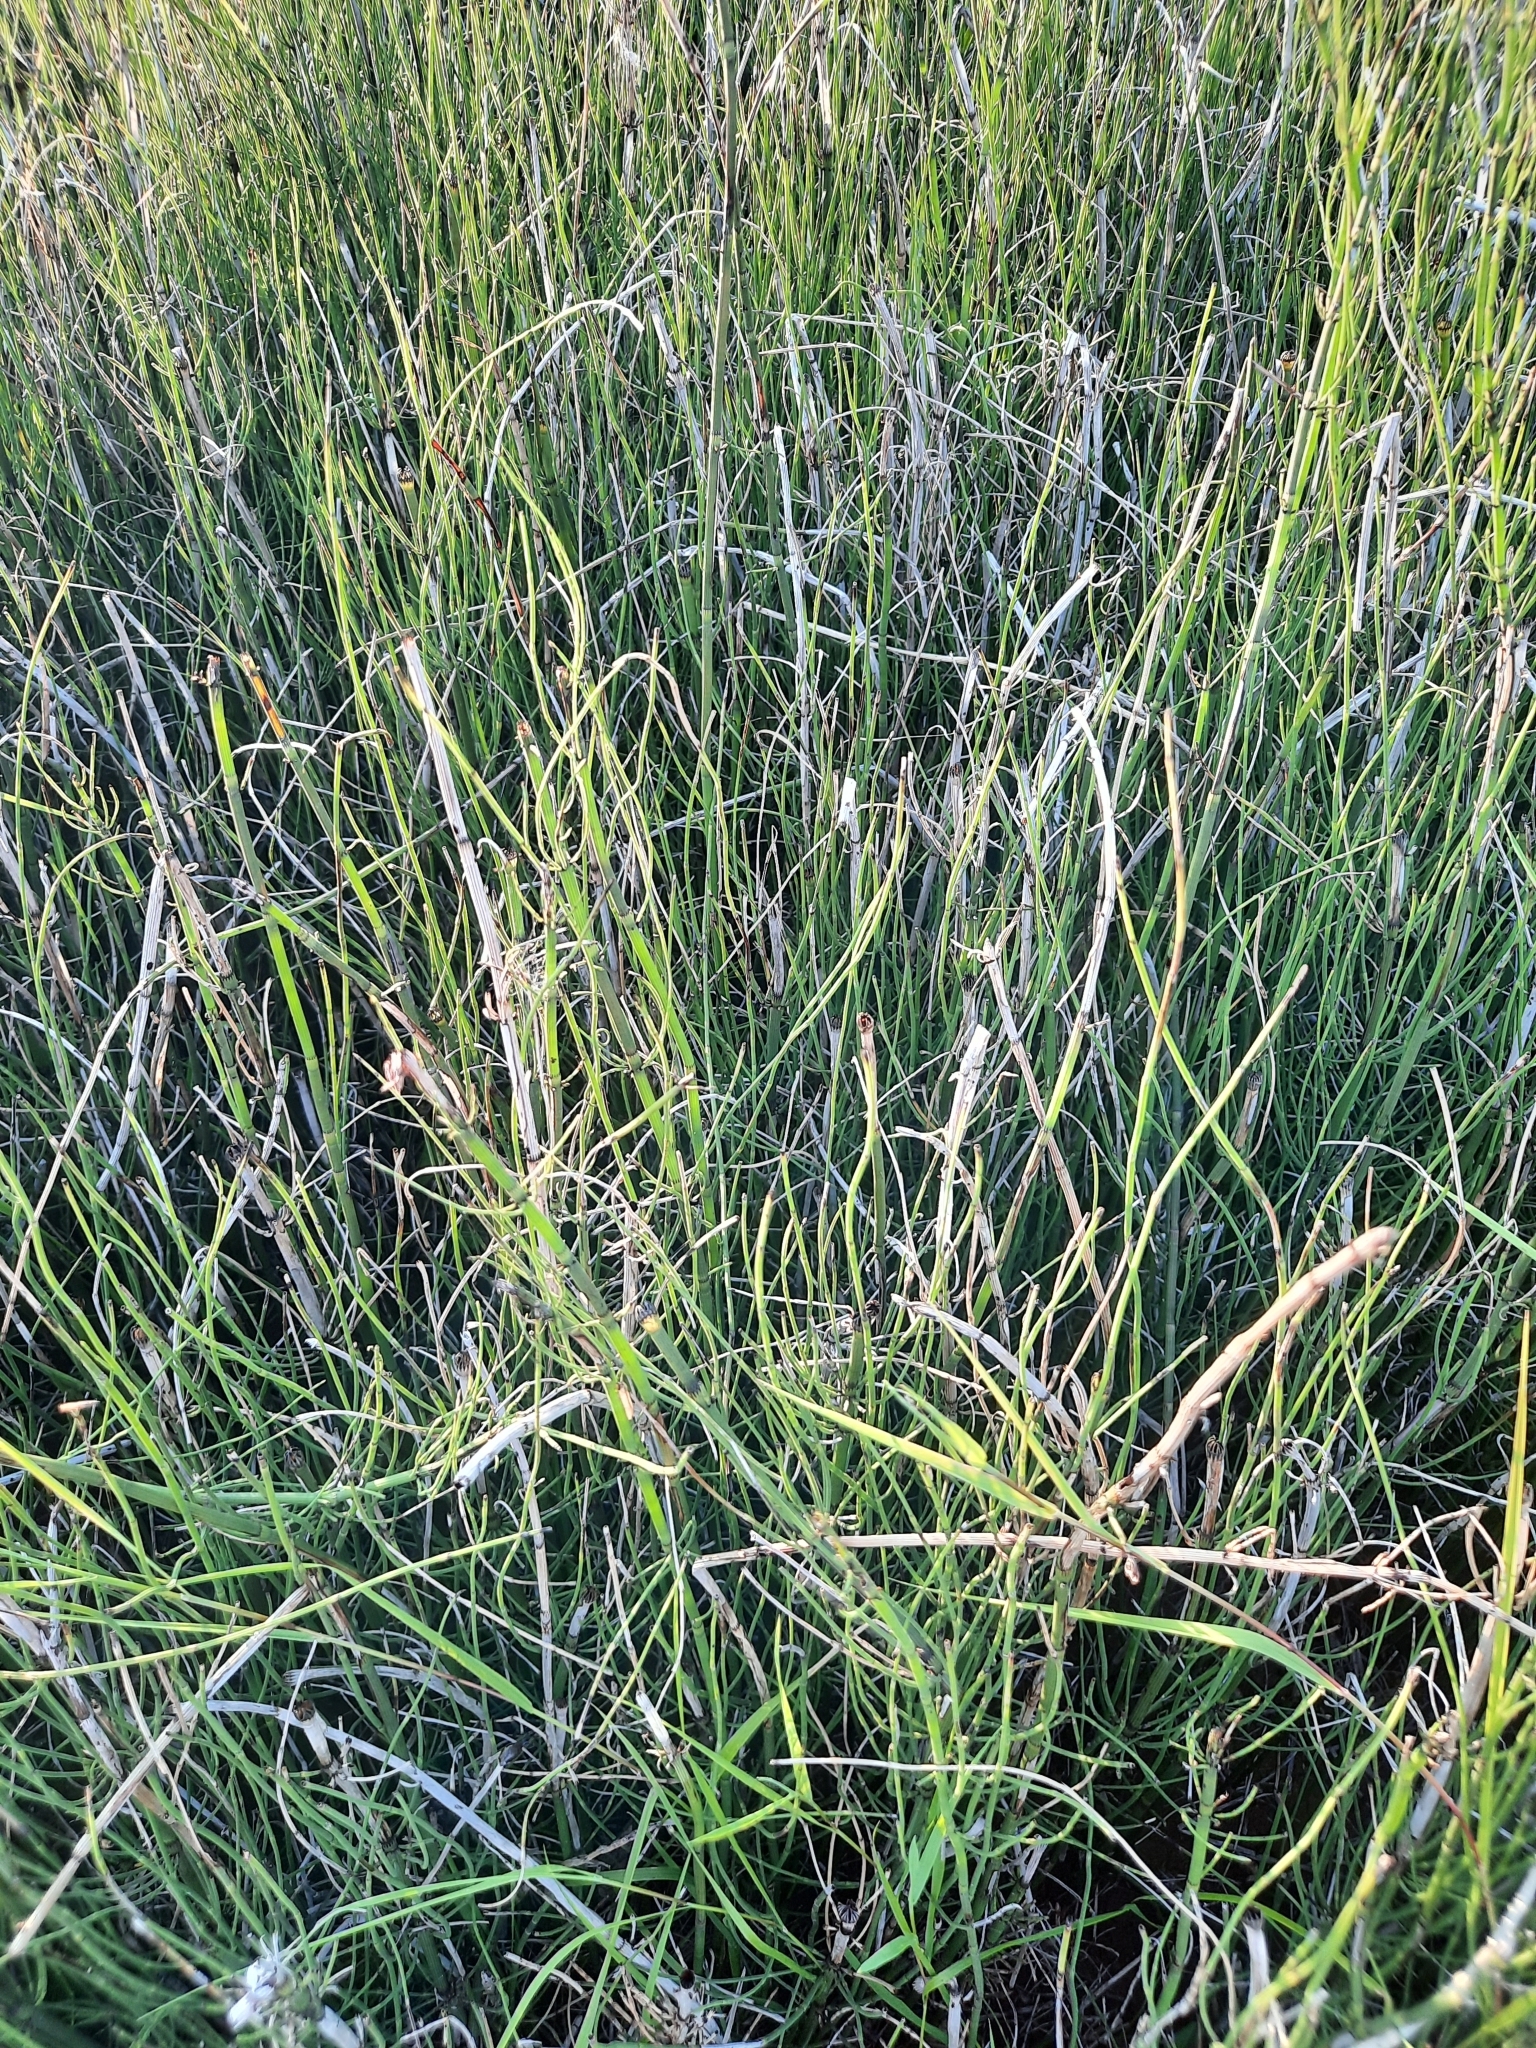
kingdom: Plantae
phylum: Tracheophyta
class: Polypodiopsida
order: Equisetales
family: Equisetaceae
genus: Equisetum
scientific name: Equisetum fluviatile
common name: Water horsetail
